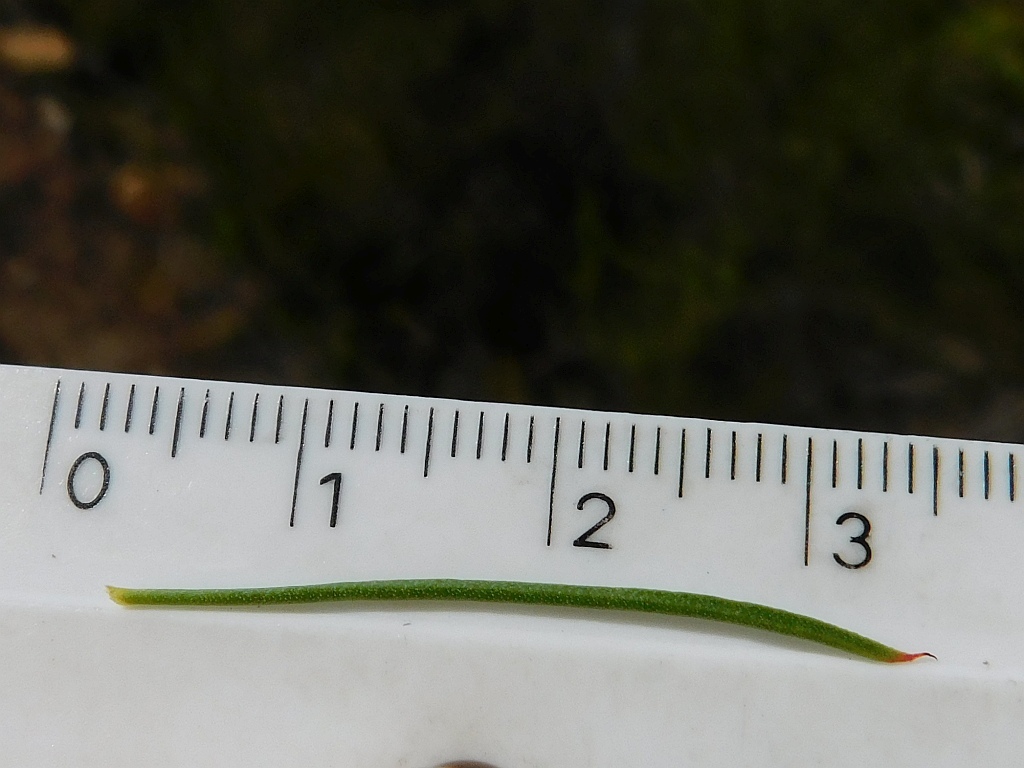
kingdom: Plantae
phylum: Tracheophyta
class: Magnoliopsida
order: Proteales
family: Proteaceae
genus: Protea
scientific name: Protea subulifolia
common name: Awl-leaf sugarbush
